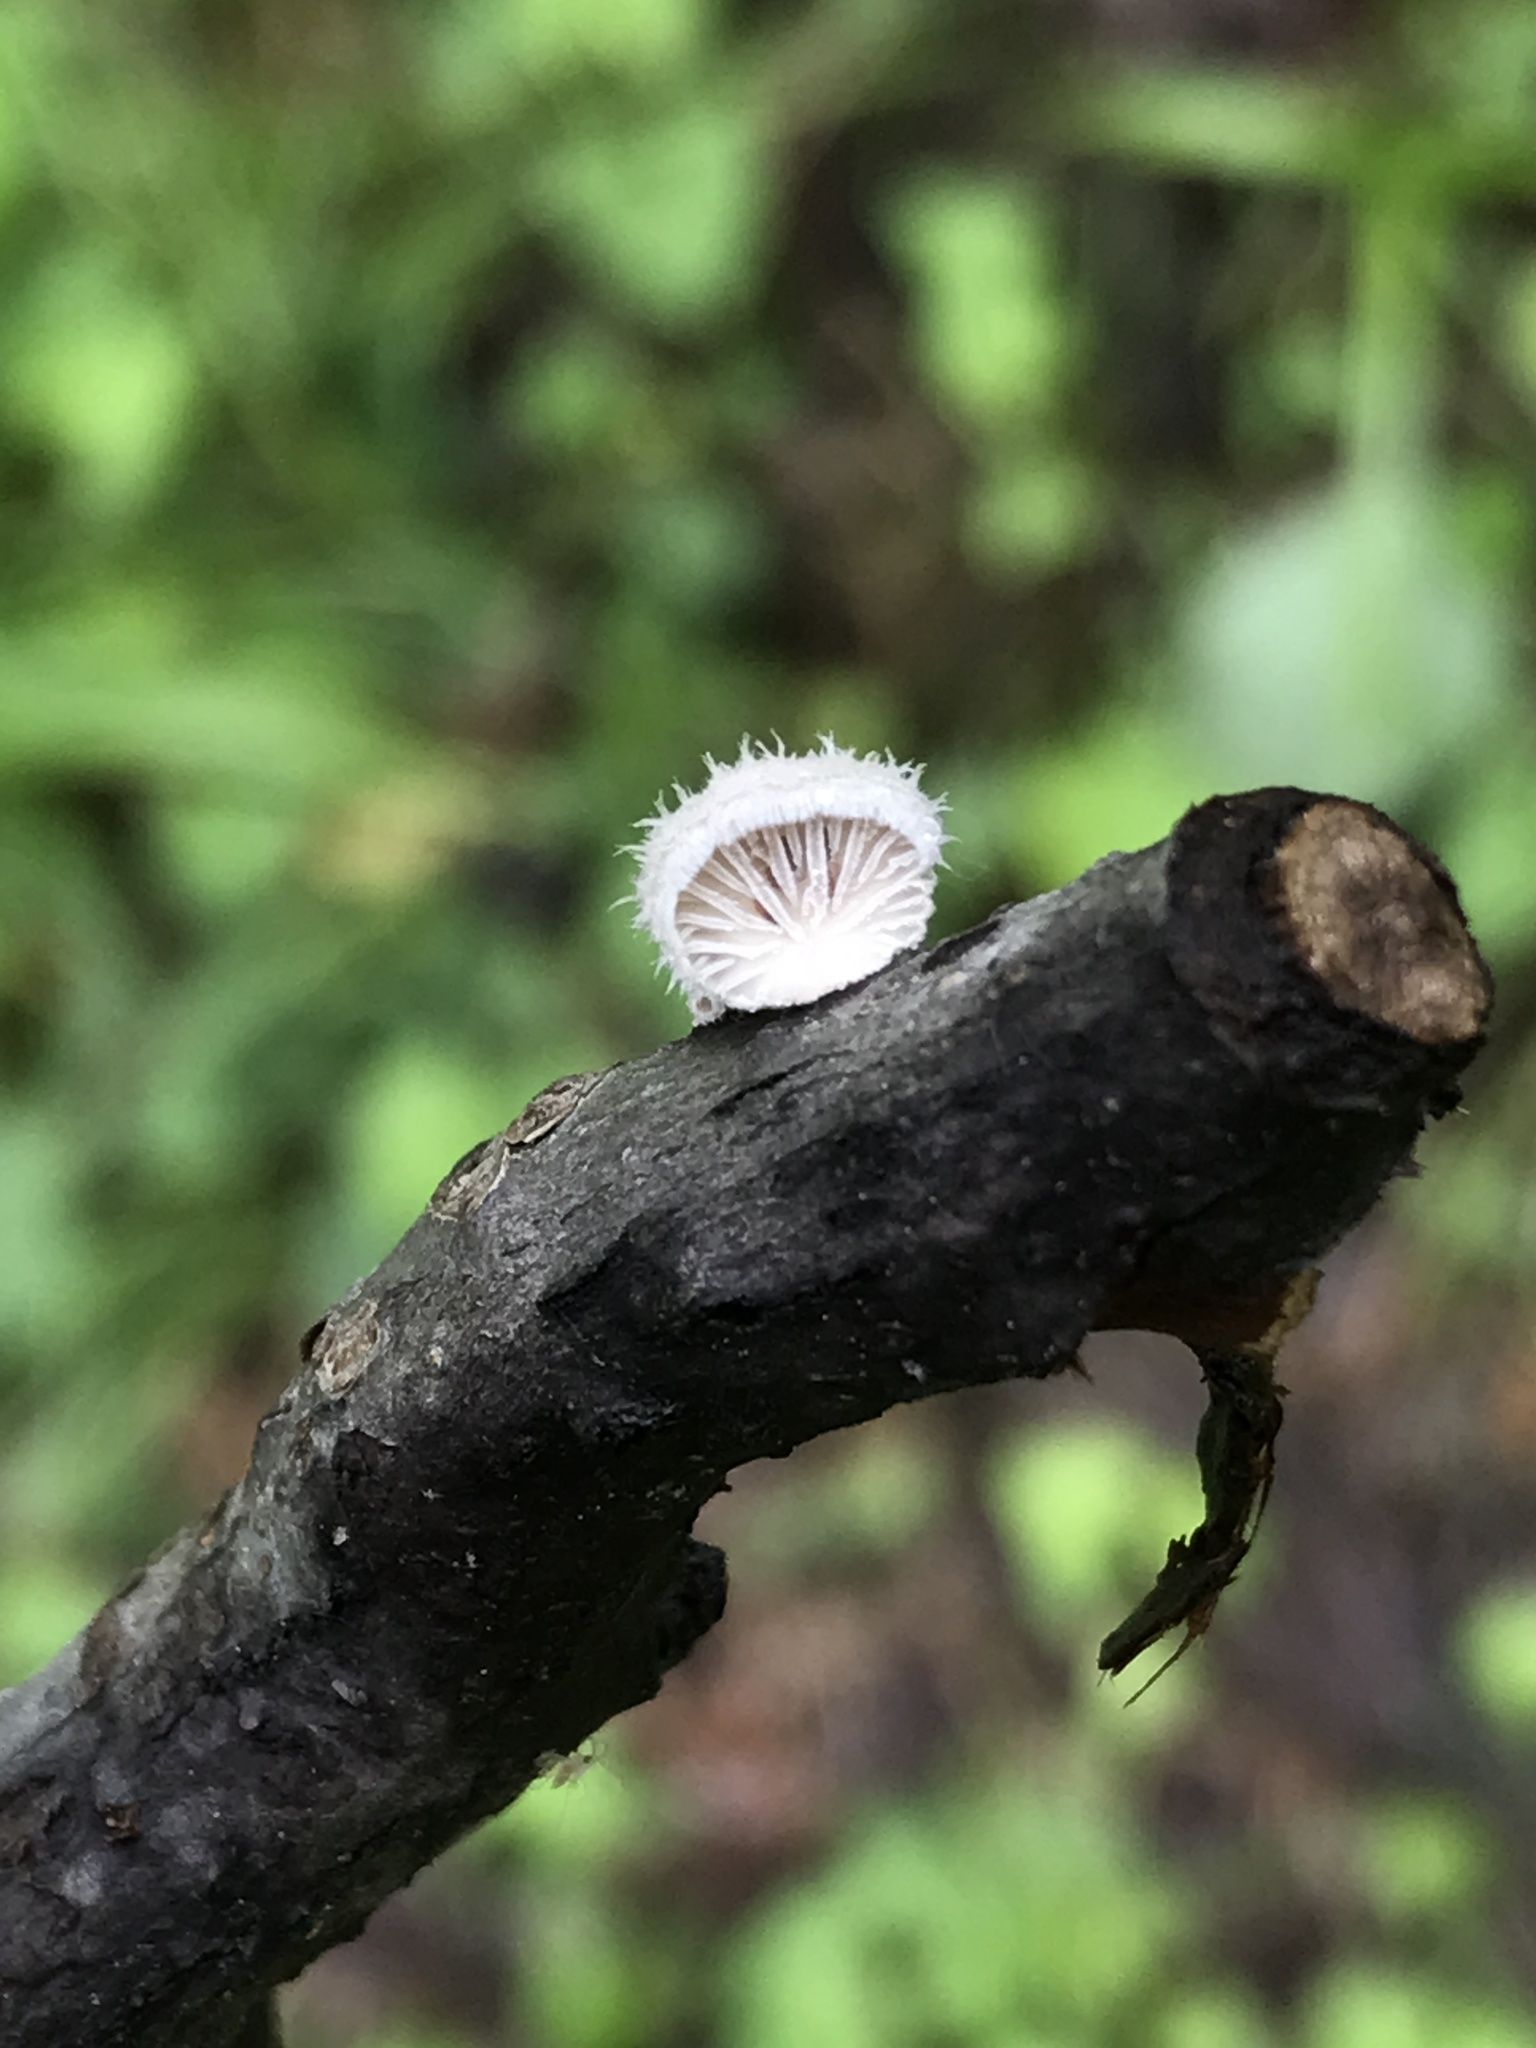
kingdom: Fungi
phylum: Basidiomycota
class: Agaricomycetes
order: Agaricales
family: Schizophyllaceae
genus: Schizophyllum
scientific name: Schizophyllum commune
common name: Common porecrust
